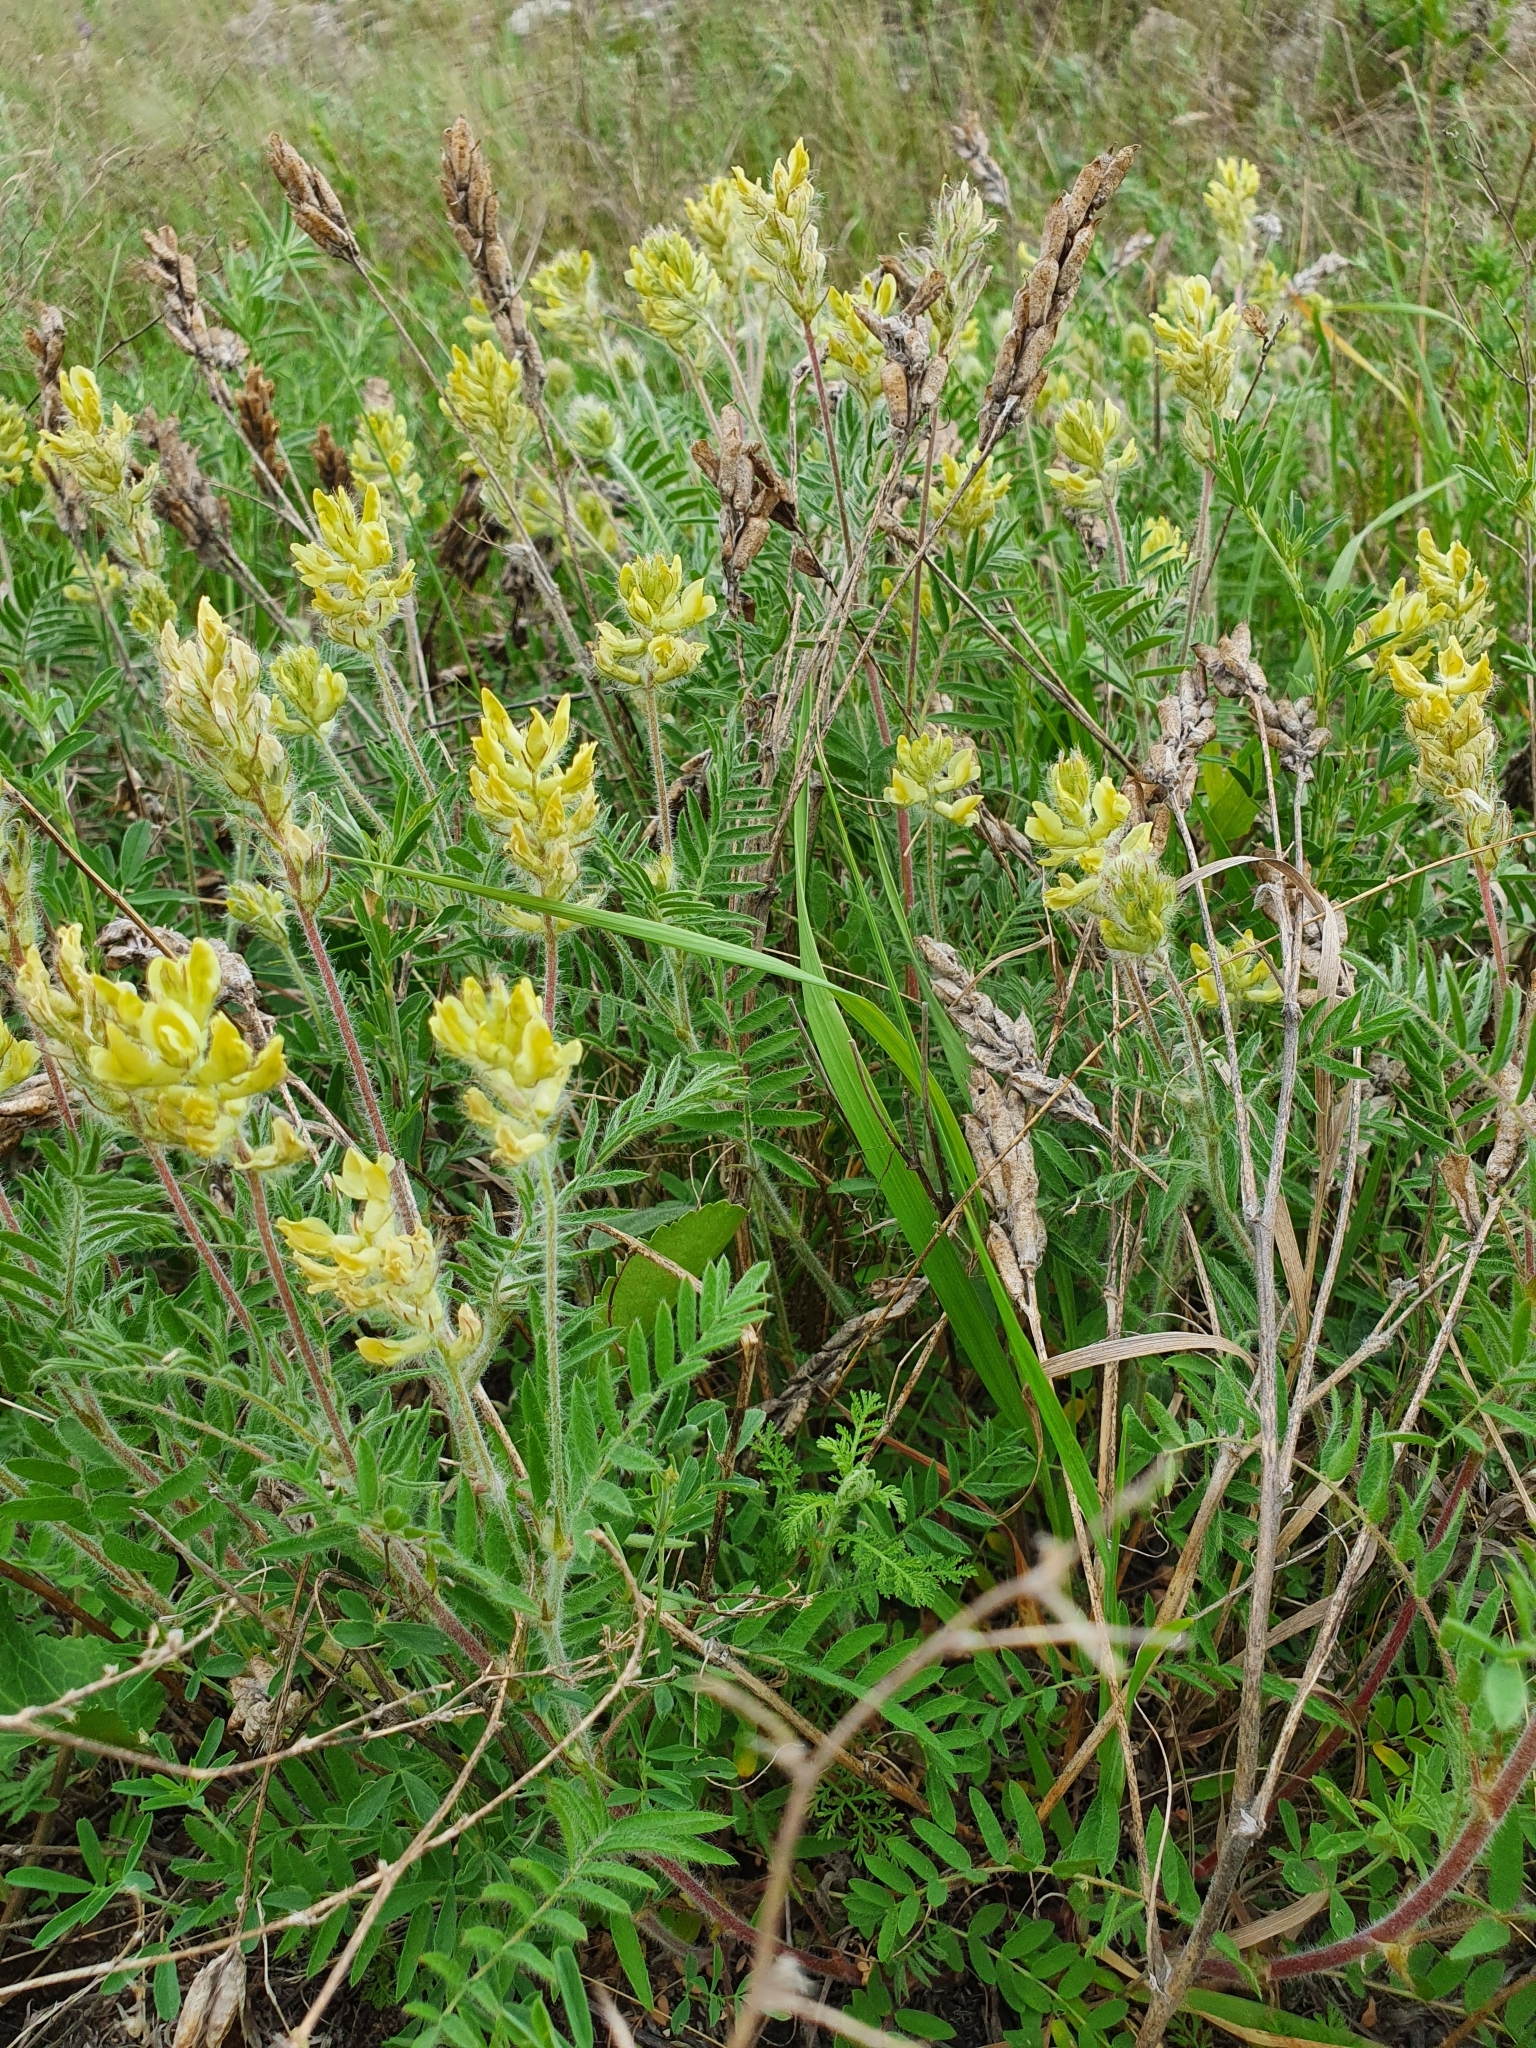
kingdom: Plantae
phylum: Tracheophyta
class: Magnoliopsida
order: Fabales
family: Fabaceae
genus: Oxytropis
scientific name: Oxytropis pilosa
